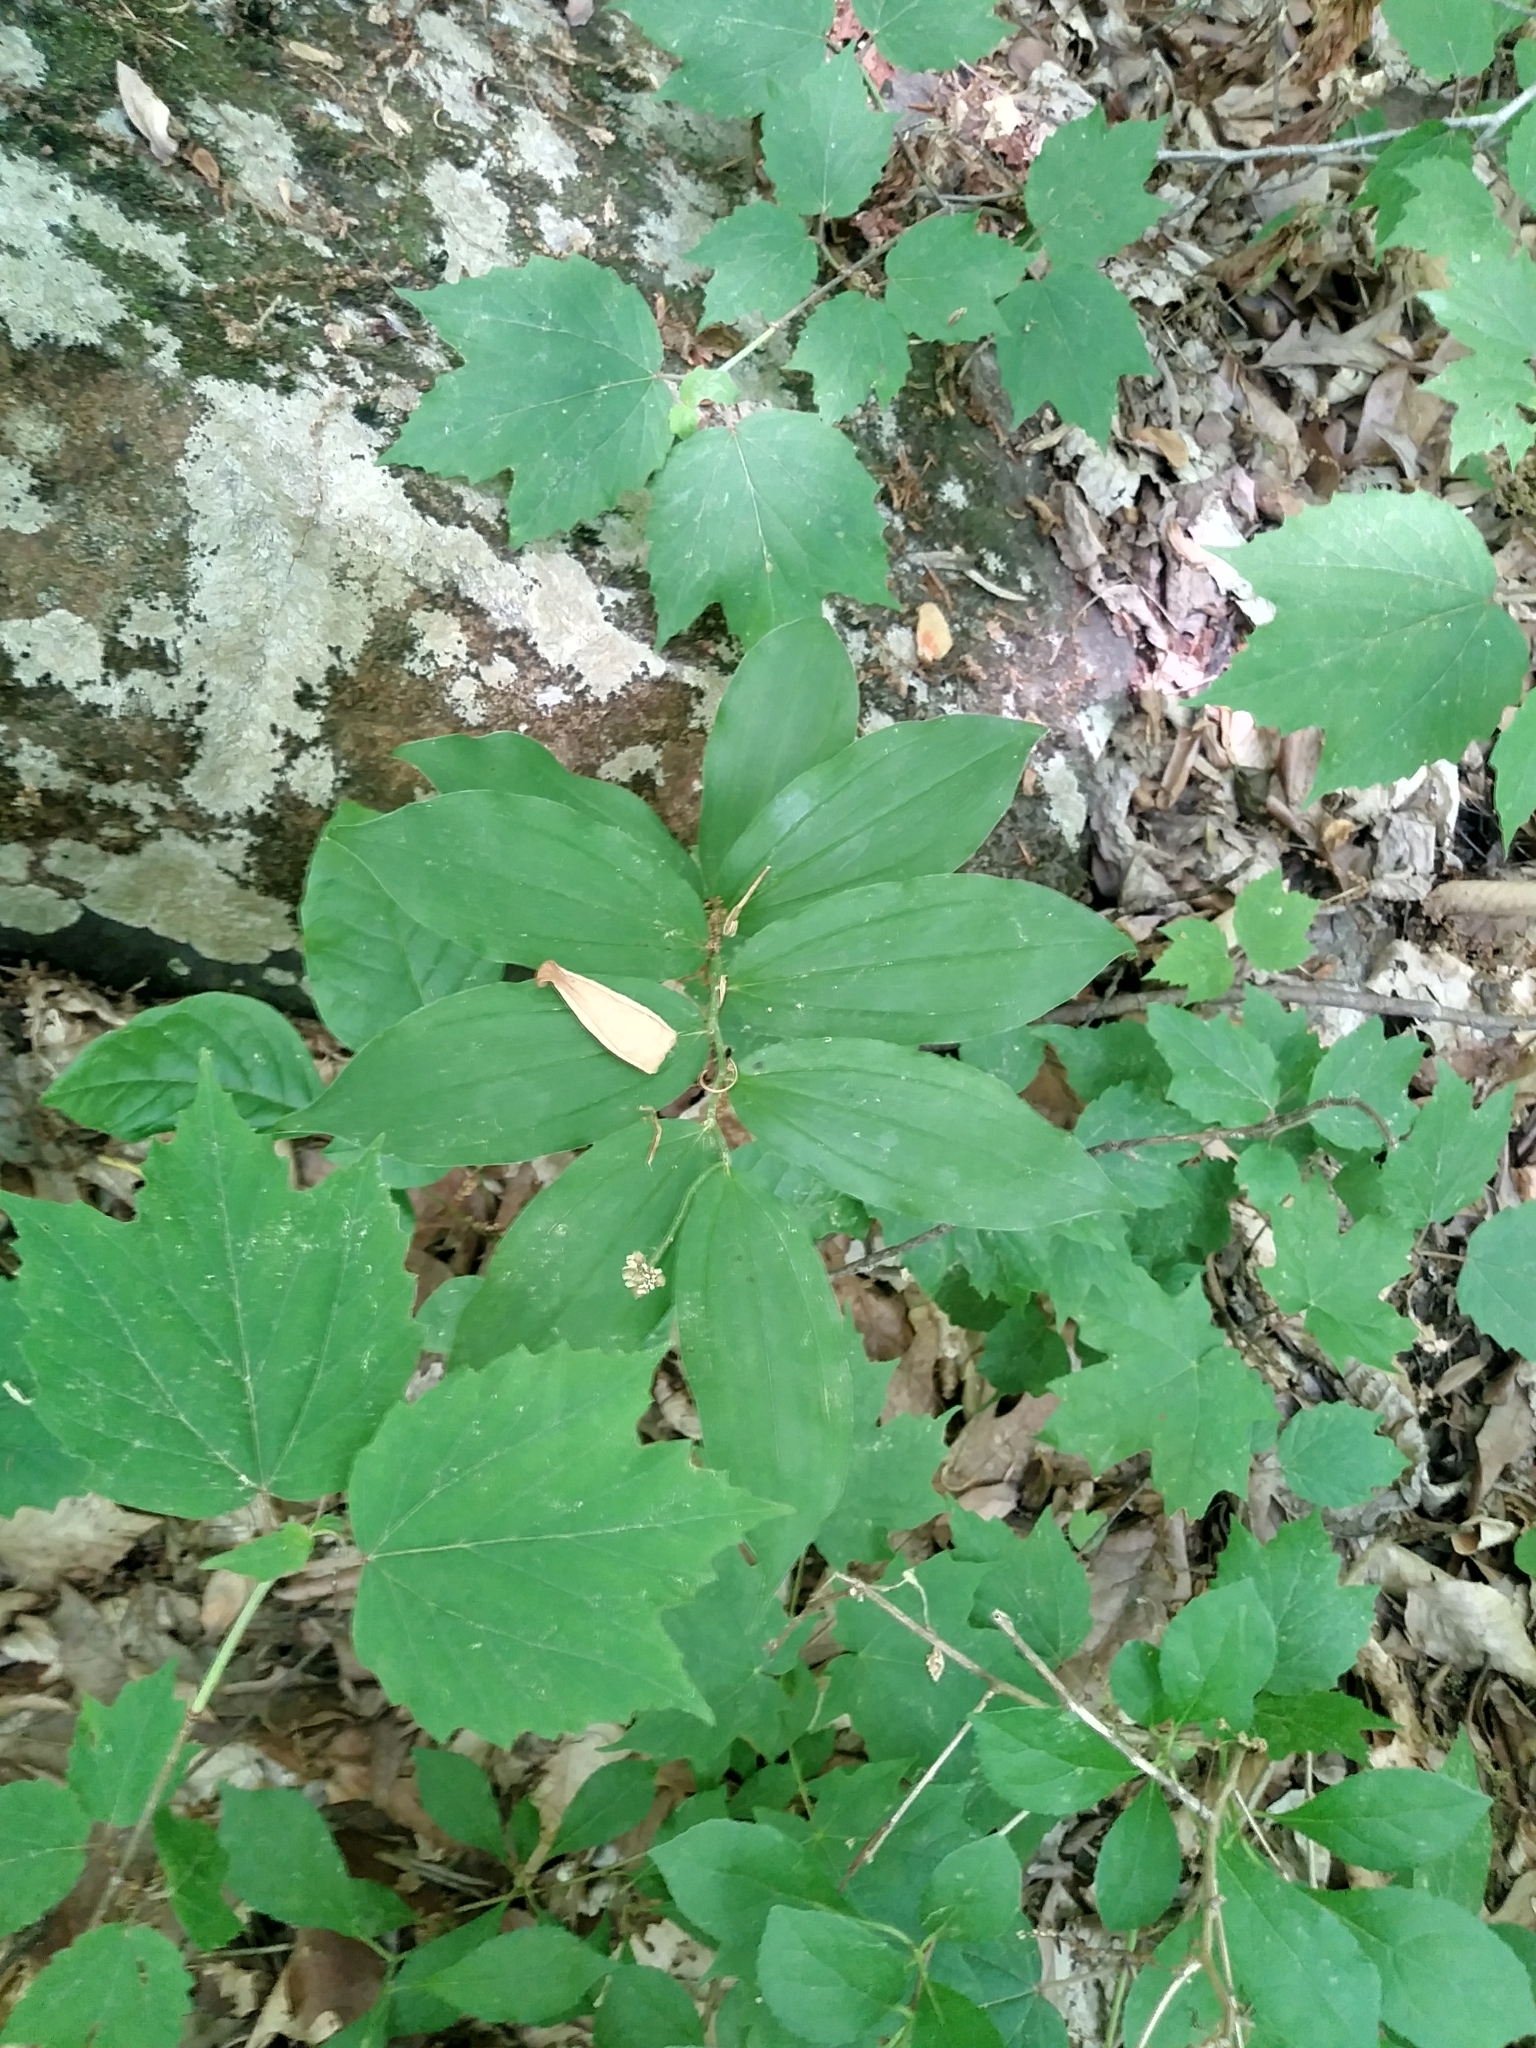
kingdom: Plantae
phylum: Tracheophyta
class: Liliopsida
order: Asparagales
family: Asparagaceae
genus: Maianthemum
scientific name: Maianthemum racemosum
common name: False spikenard
